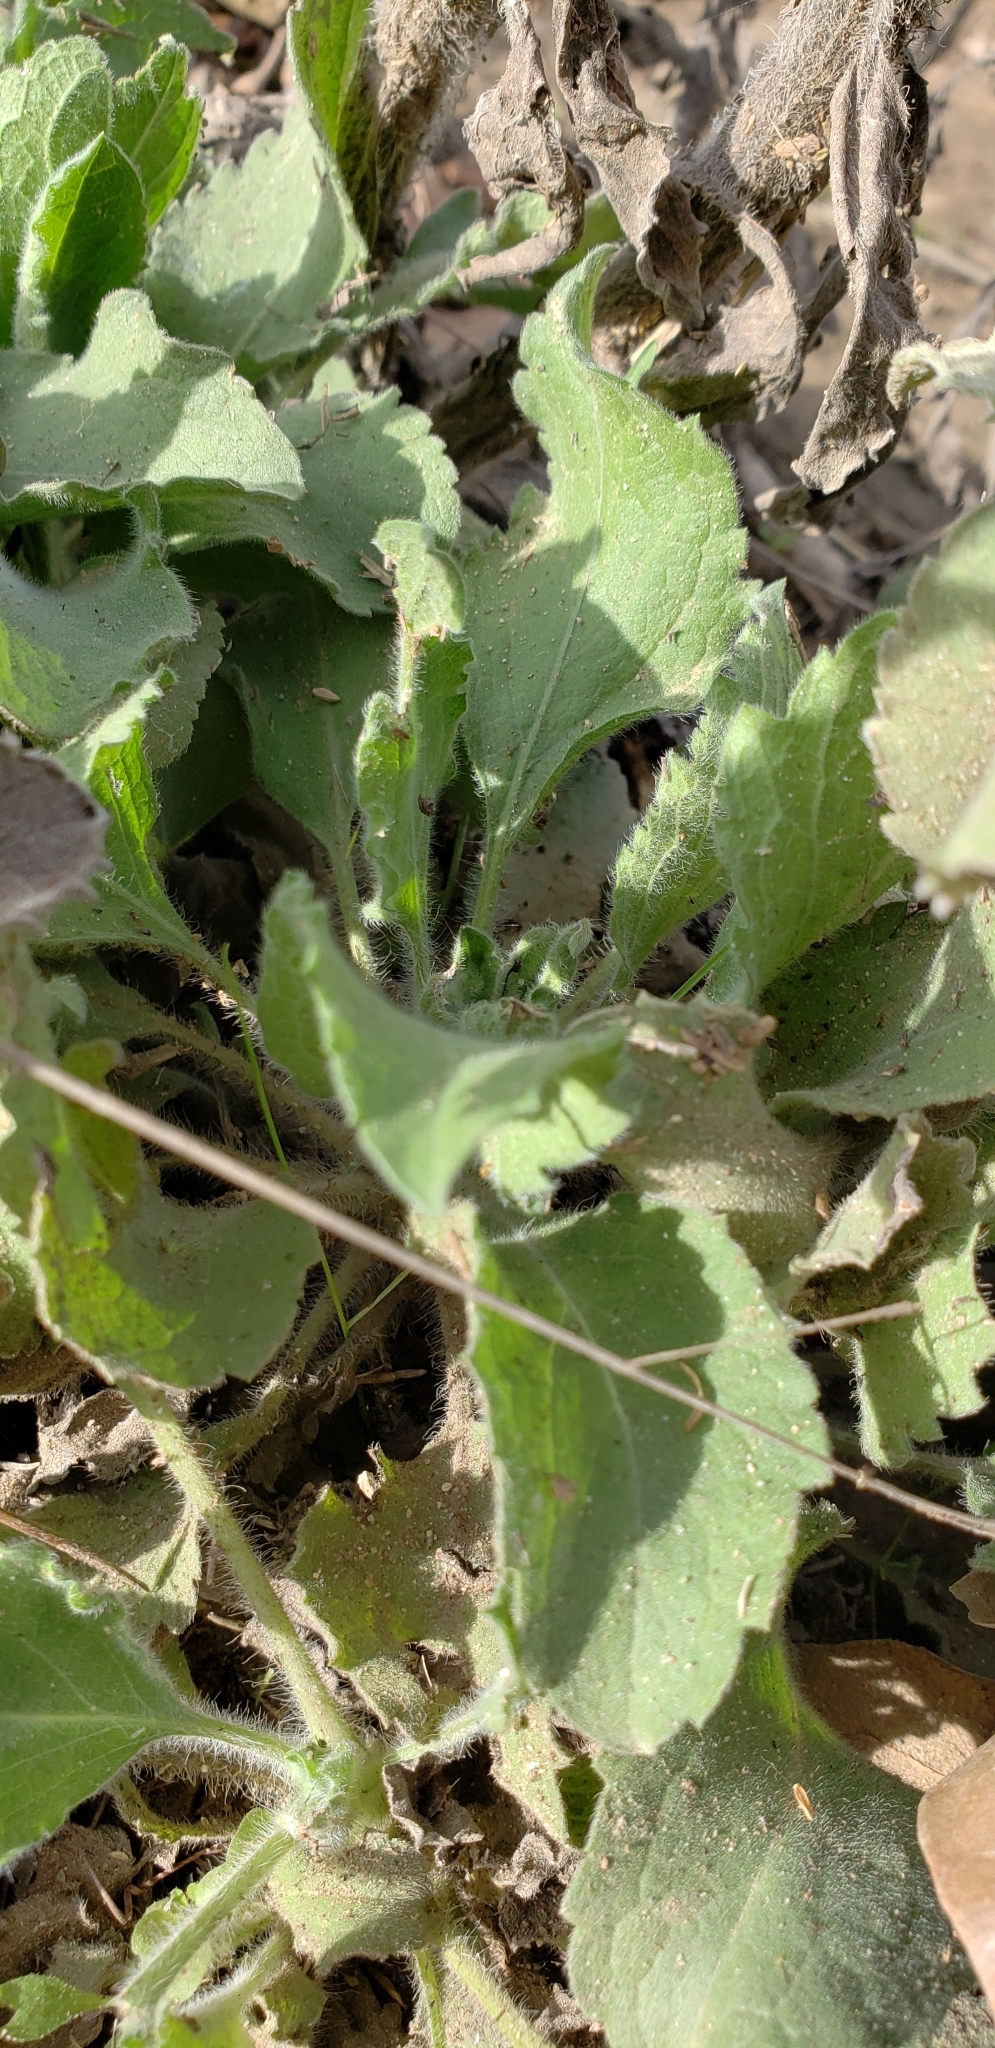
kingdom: Plantae
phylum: Tracheophyta
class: Magnoliopsida
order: Asterales
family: Asteraceae
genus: Heterotheca
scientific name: Heterotheca grandiflora
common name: Telegraphweed
